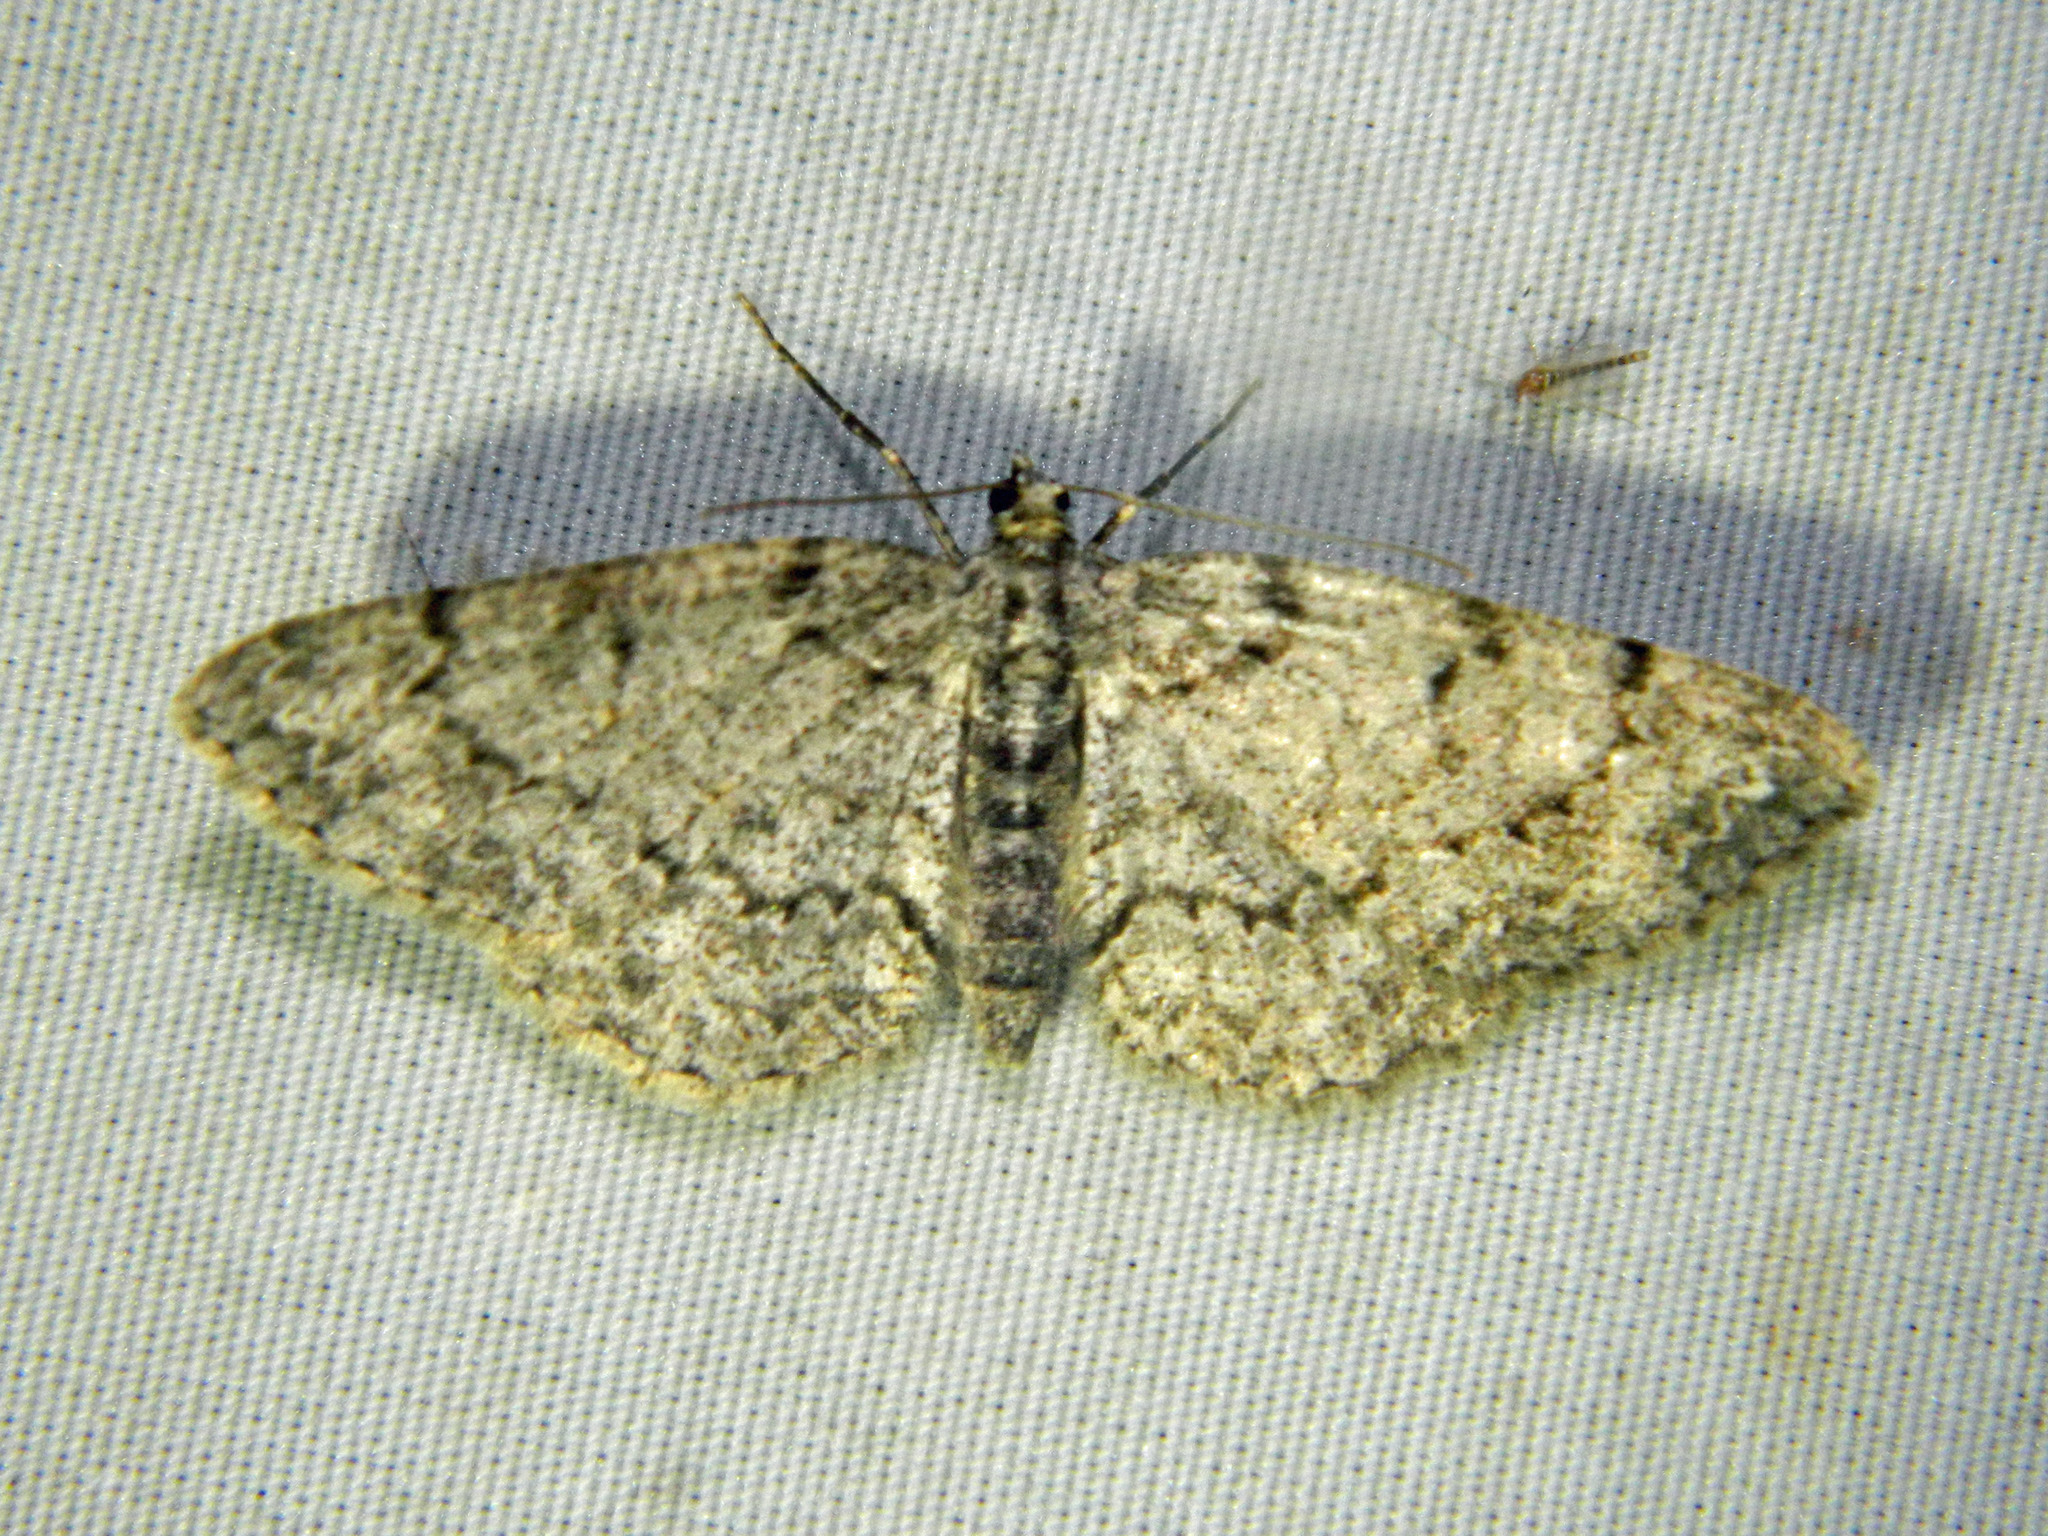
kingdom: Animalia
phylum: Arthropoda
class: Insecta
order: Lepidoptera
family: Geometridae
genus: Protoboarmia
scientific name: Protoboarmia porcelaria
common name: Porcelain gray
